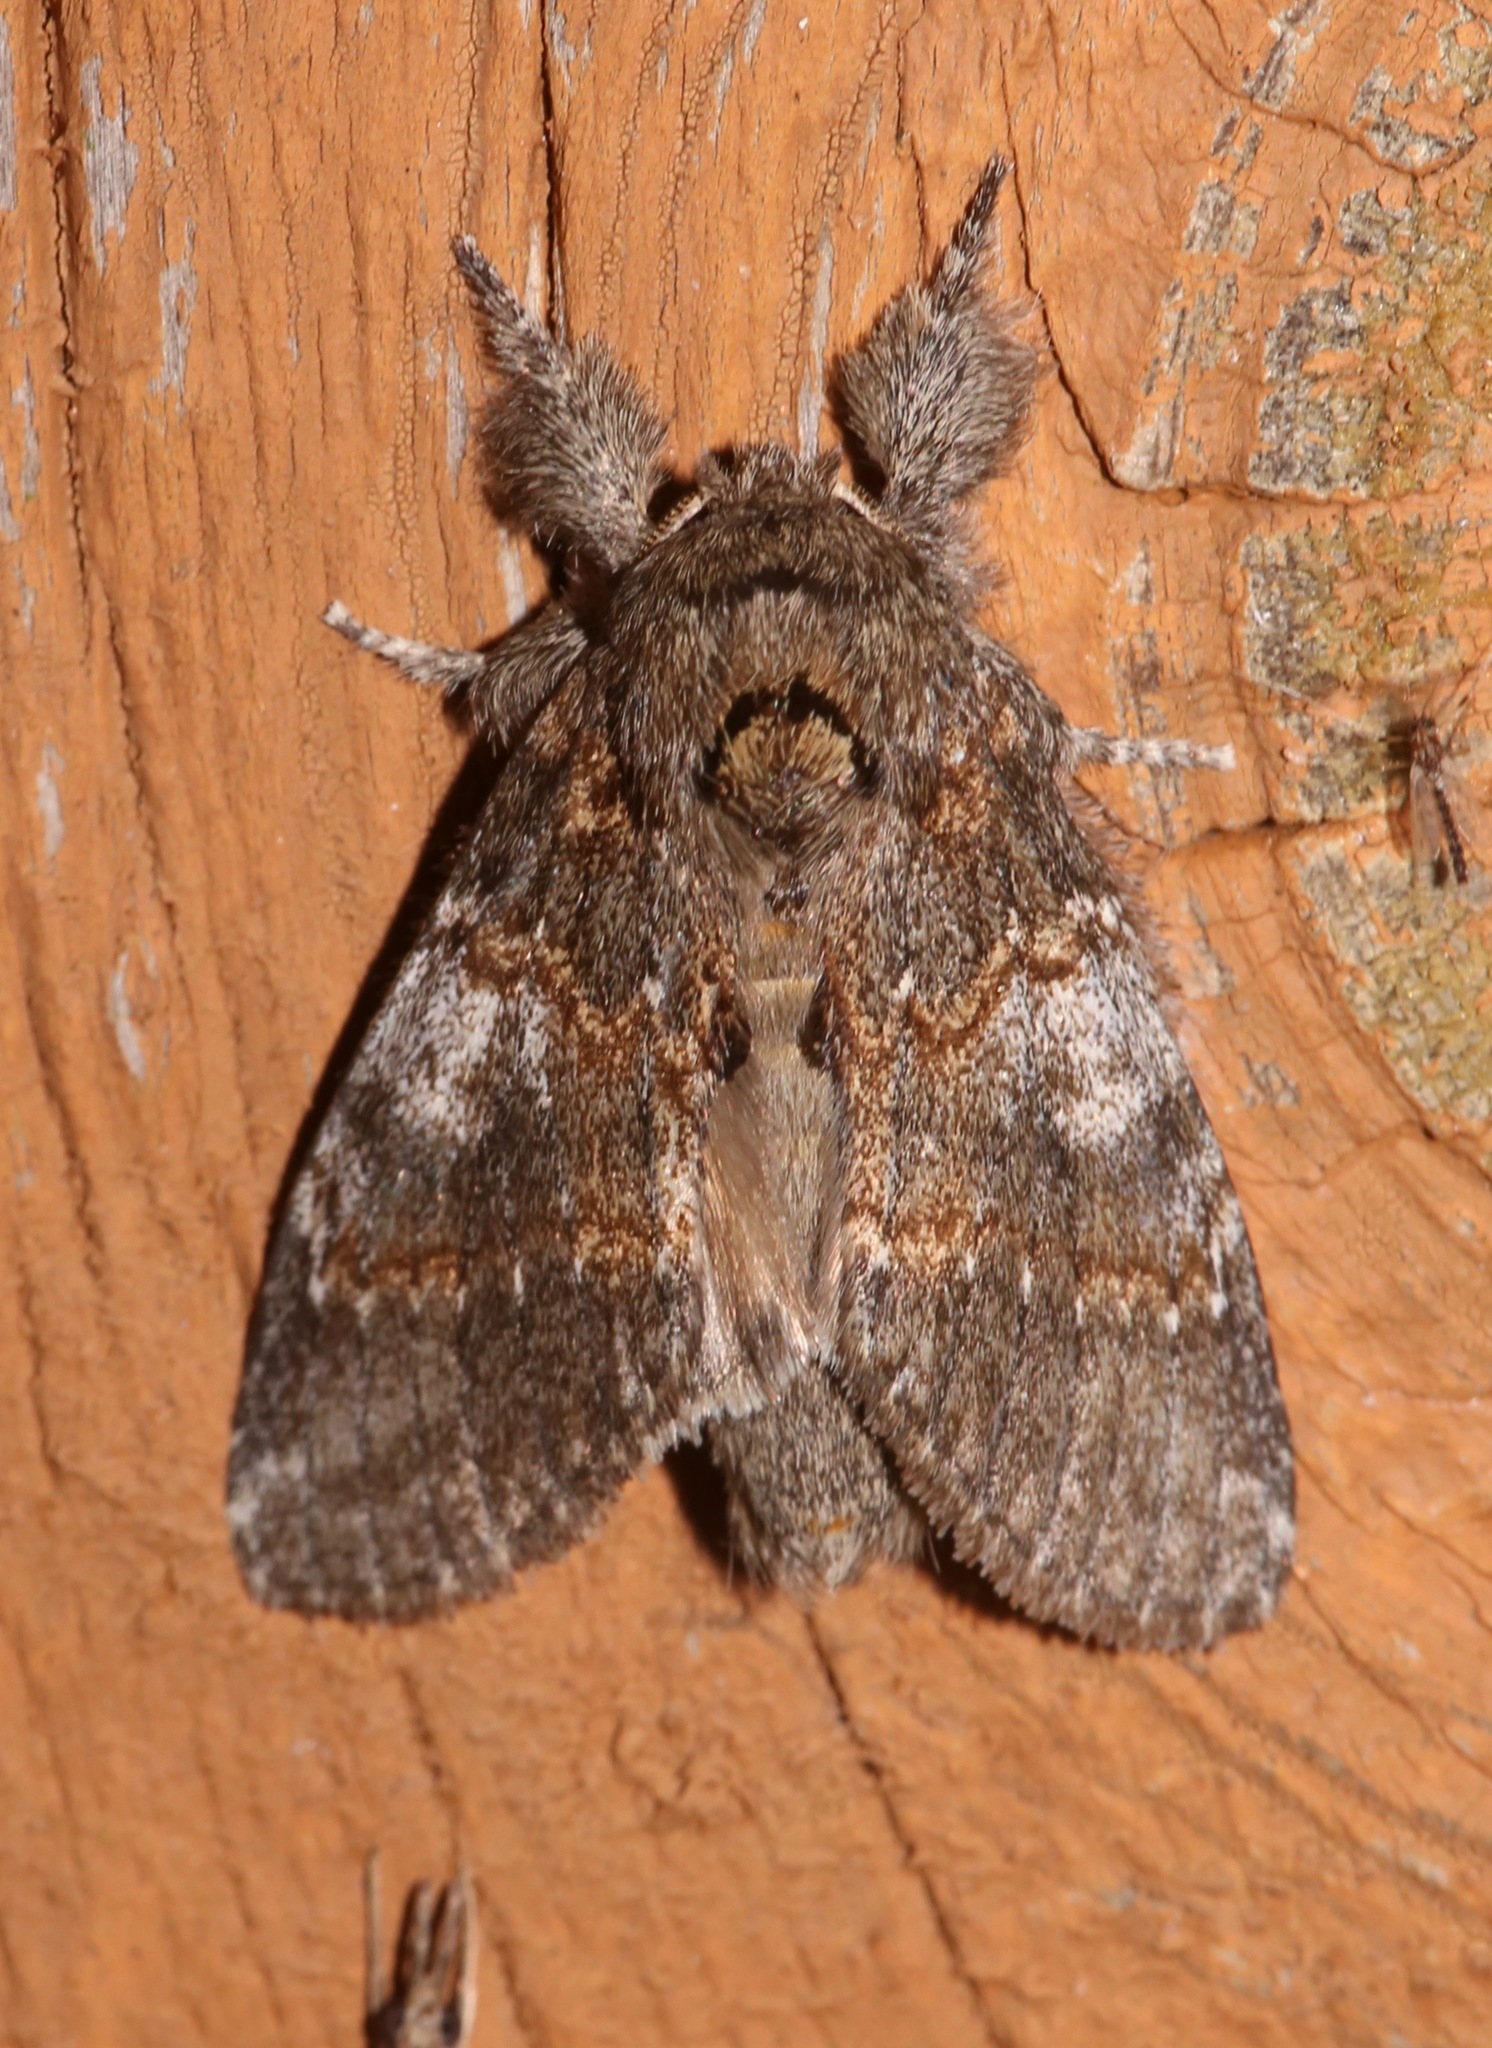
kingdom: Animalia
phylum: Arthropoda
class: Insecta
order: Lepidoptera
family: Notodontidae
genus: Peridea
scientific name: Peridea angulosa
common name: Angulose prominent
